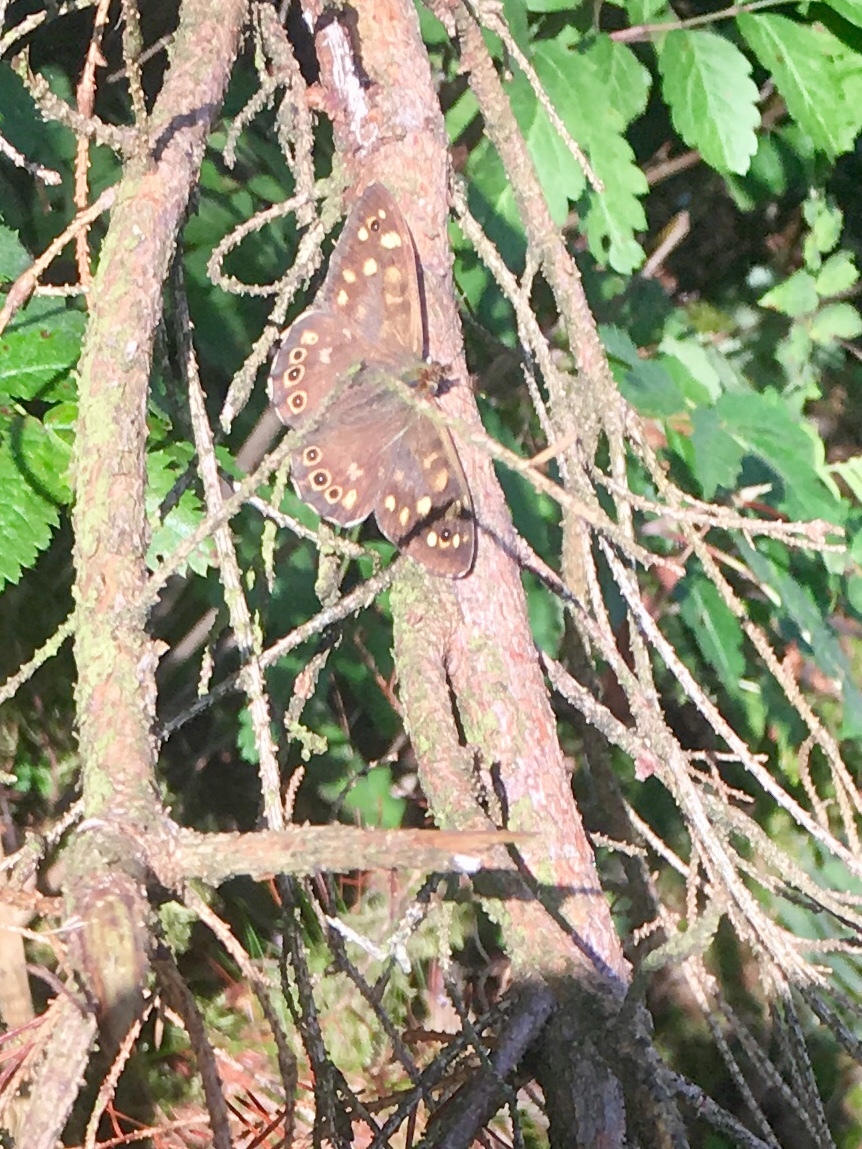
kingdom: Animalia
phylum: Arthropoda
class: Insecta
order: Lepidoptera
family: Nymphalidae
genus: Pararge
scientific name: Pararge aegeria
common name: Speckled wood
